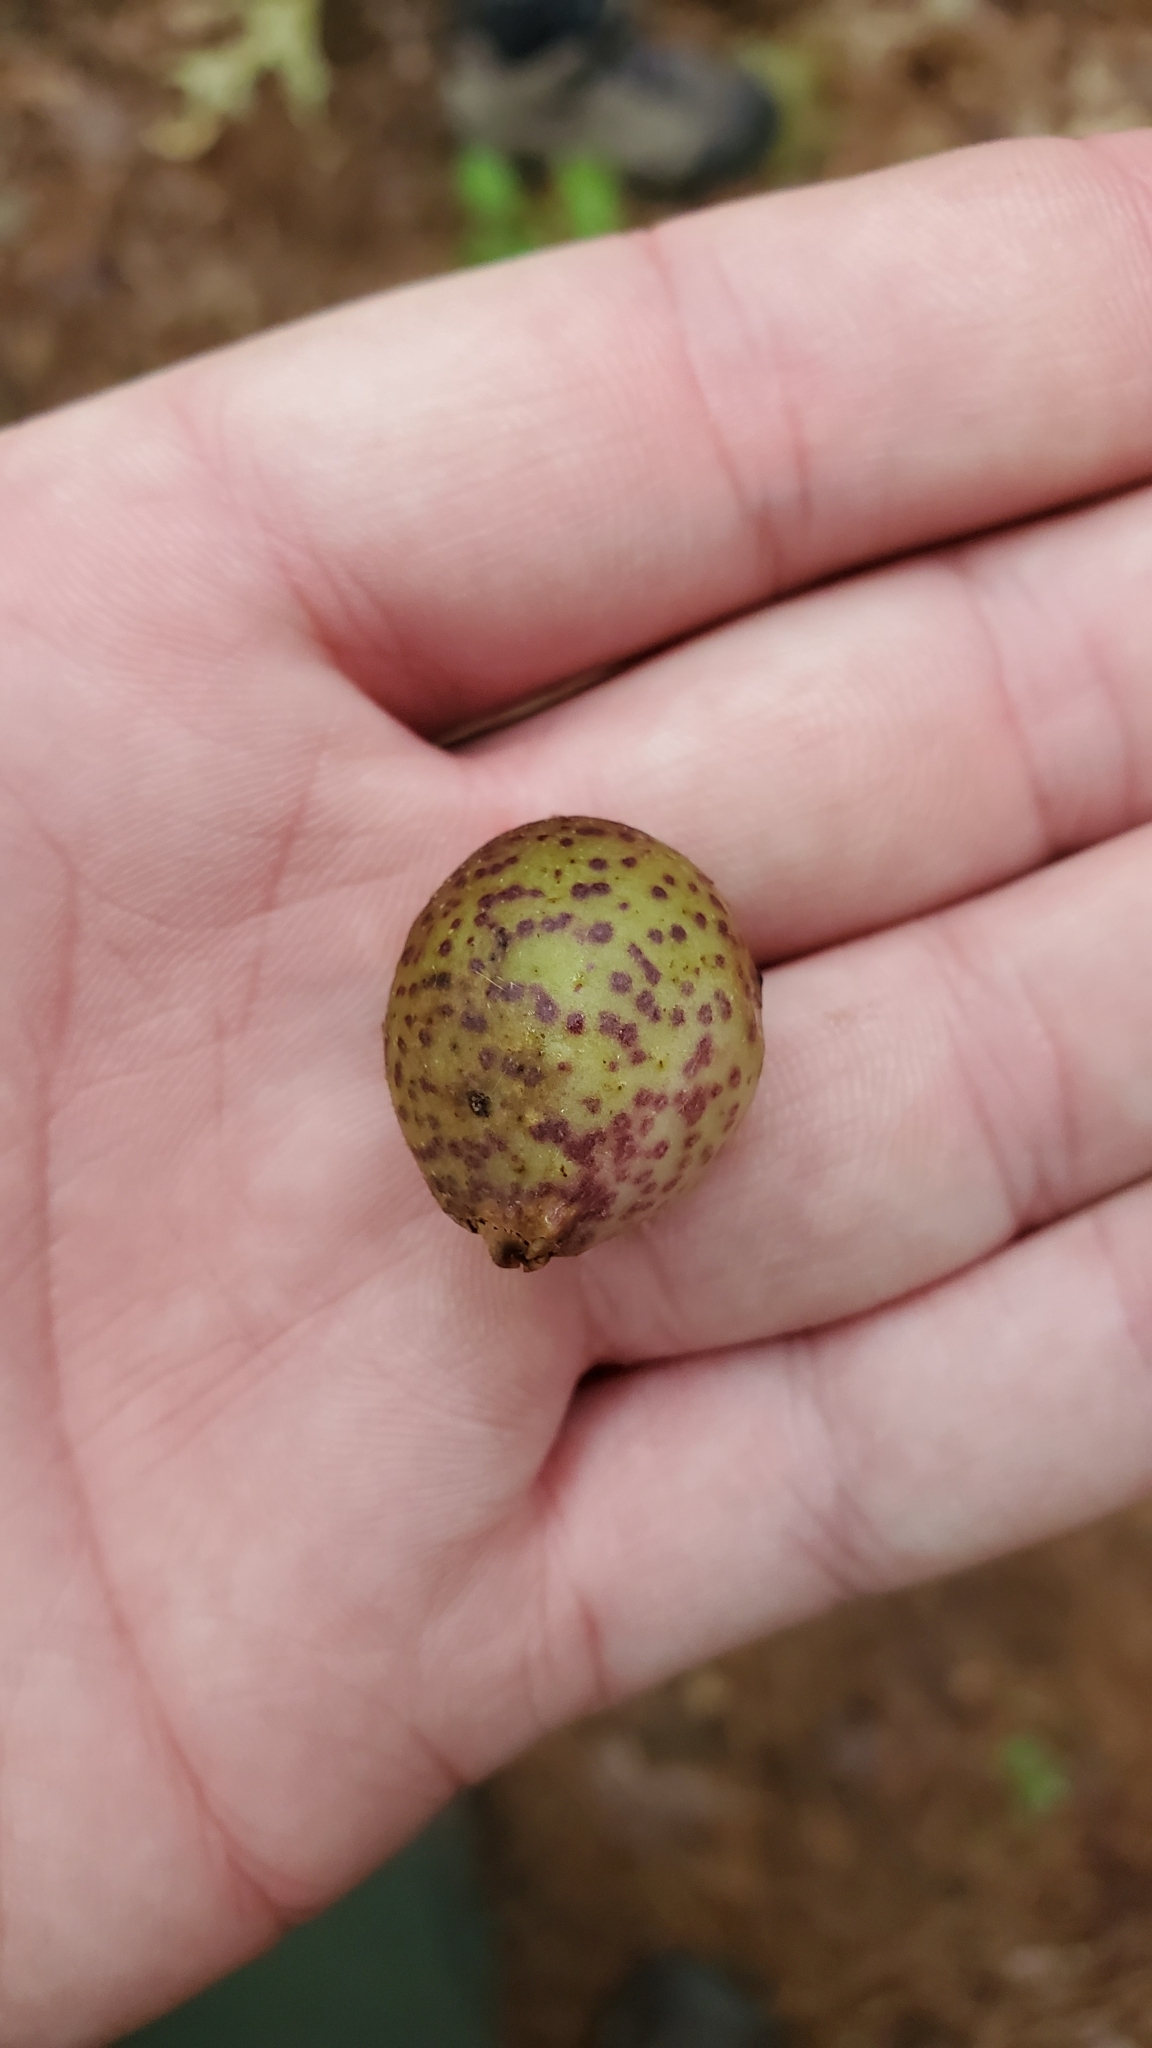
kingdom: Animalia
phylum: Arthropoda
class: Insecta
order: Hymenoptera
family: Cynipidae
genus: Amphibolips
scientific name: Amphibolips
